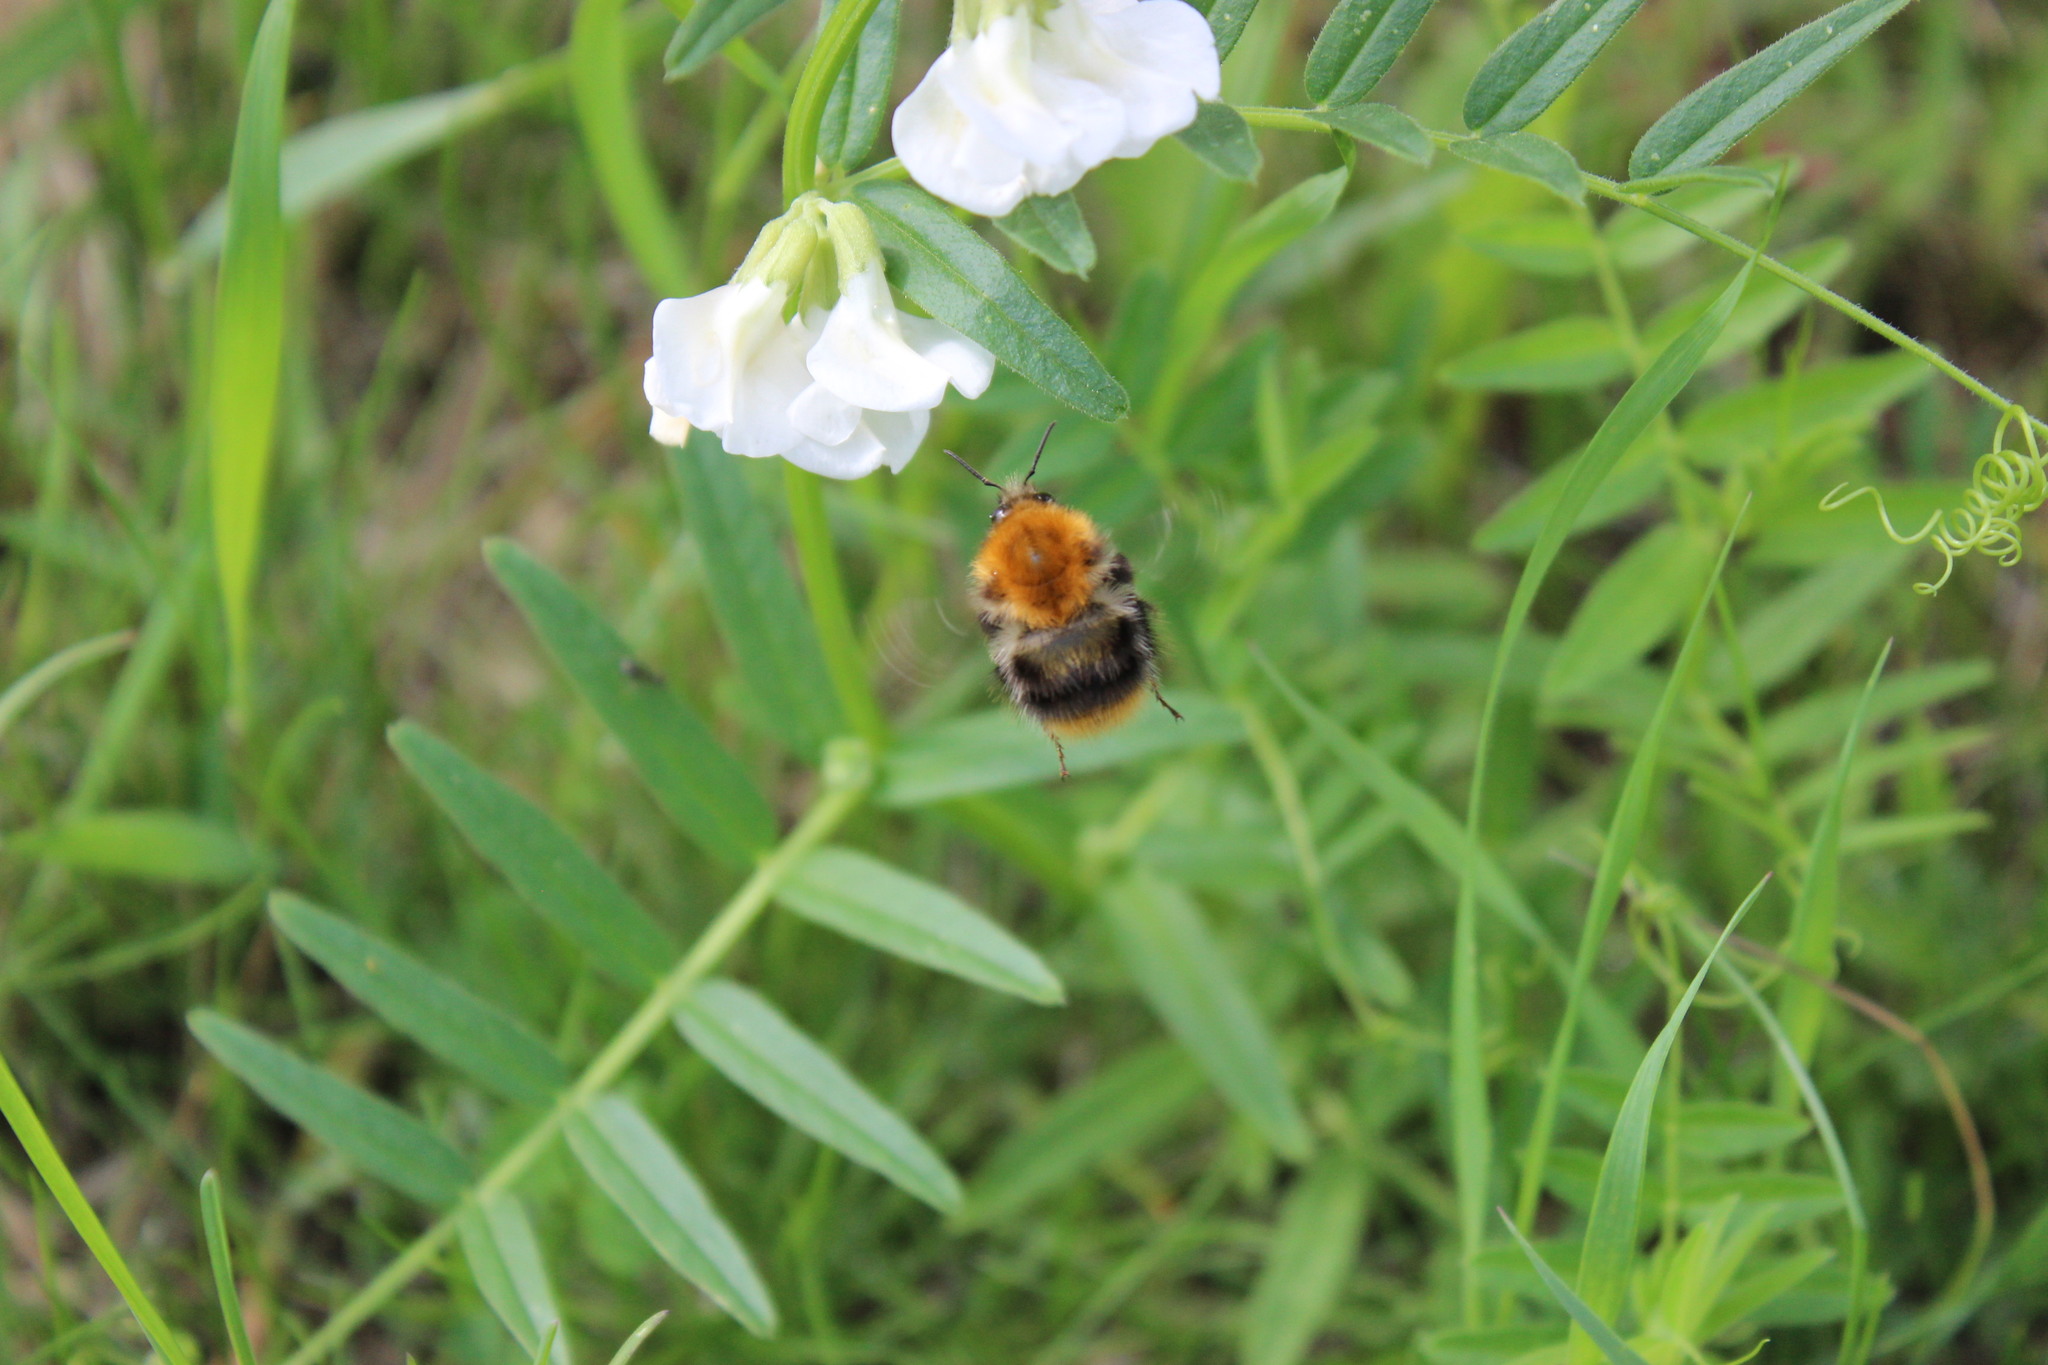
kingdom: Animalia
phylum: Arthropoda
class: Insecta
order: Hymenoptera
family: Apidae
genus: Bombus
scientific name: Bombus pascuorum
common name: Common carder bee
